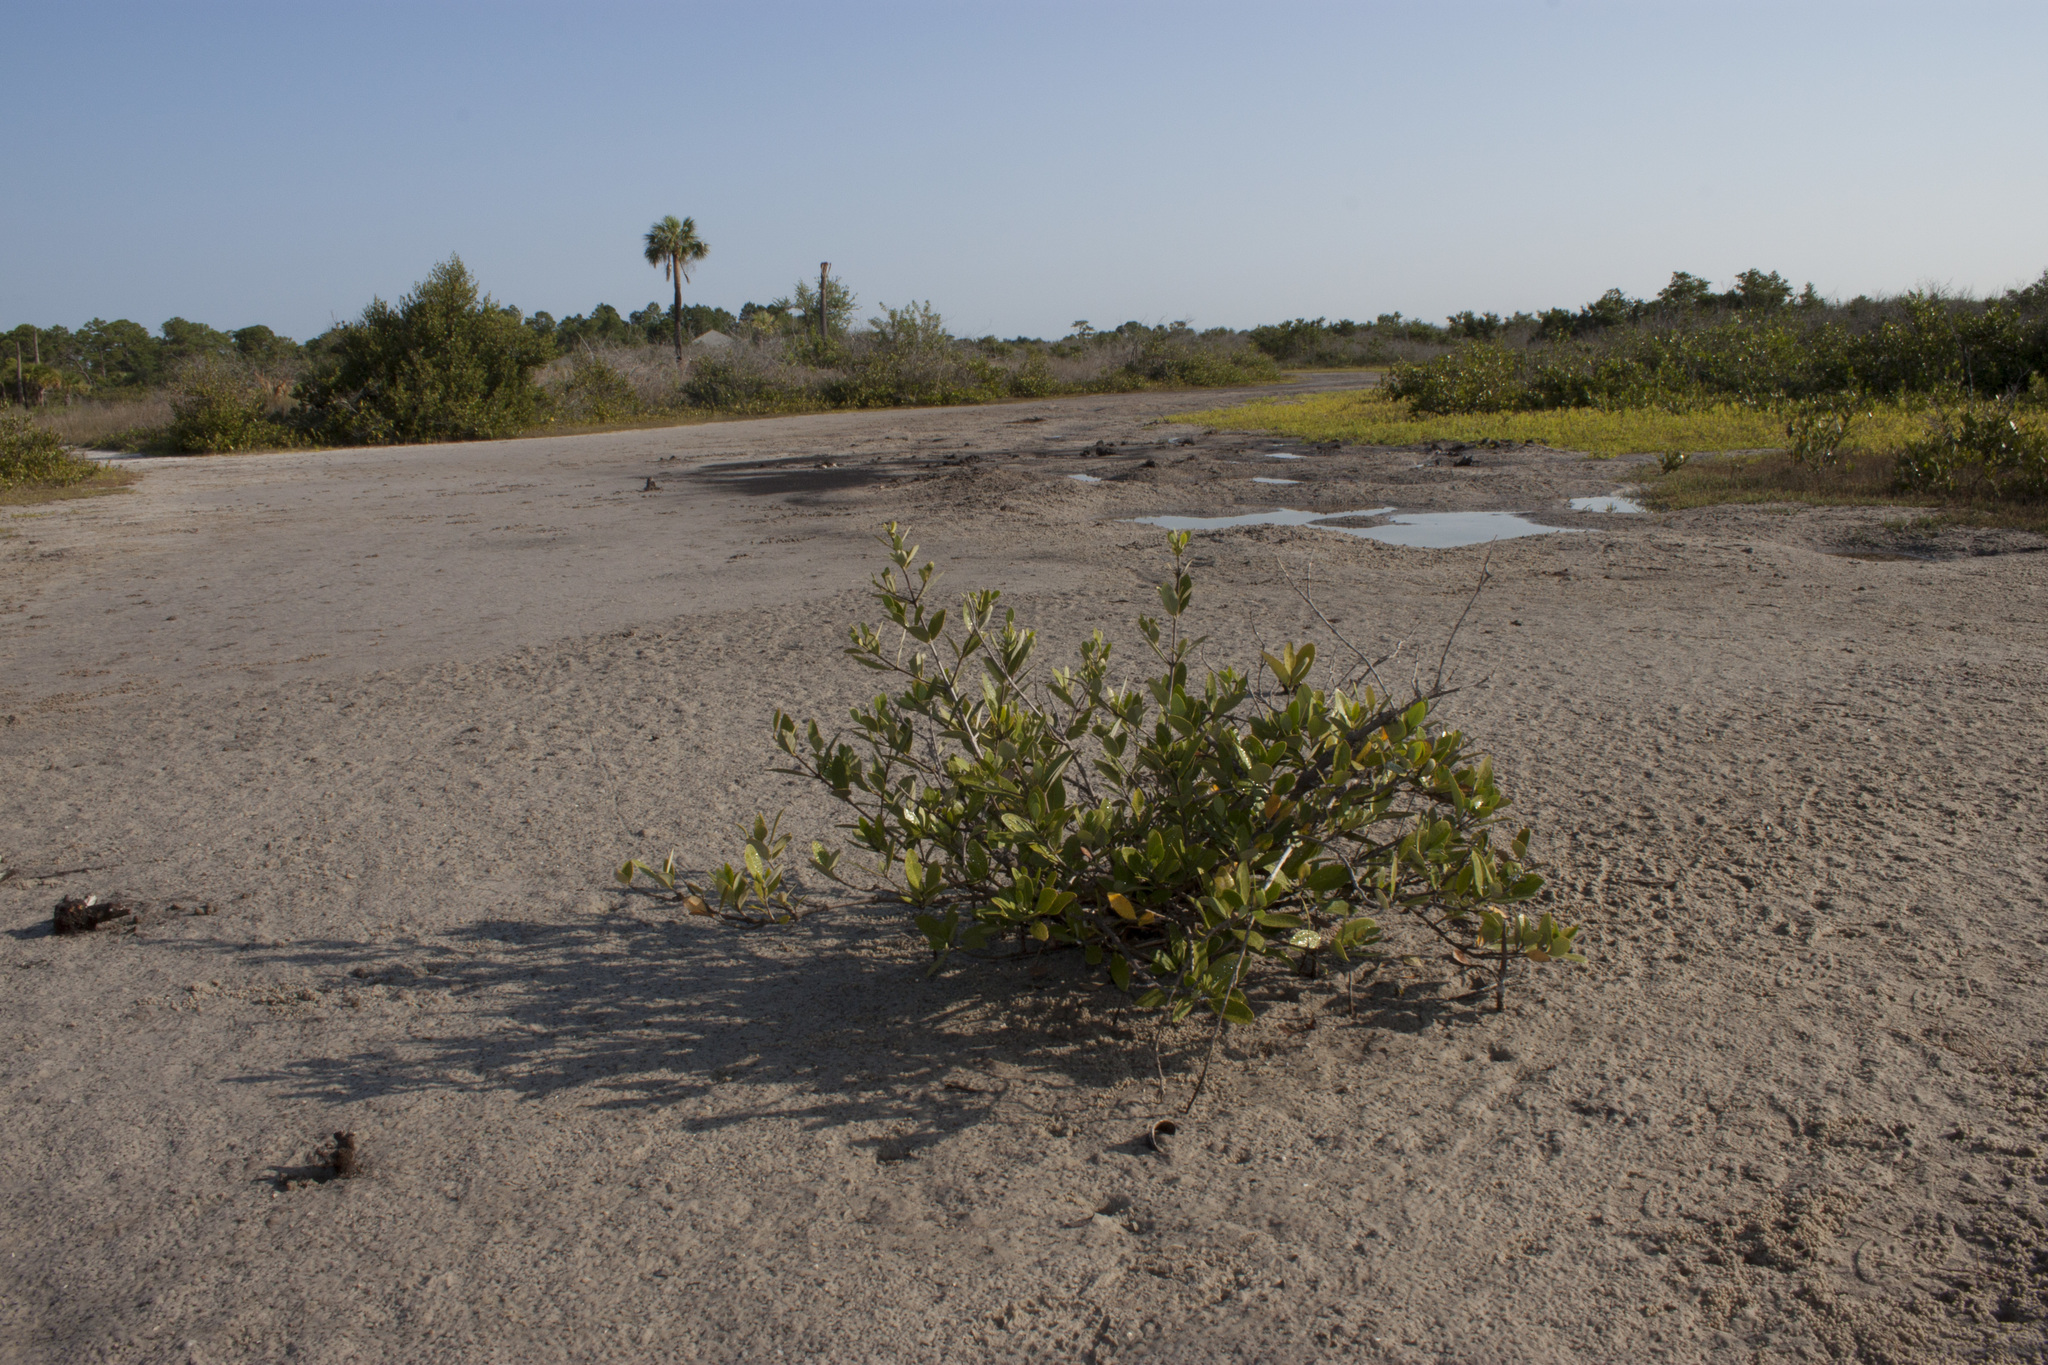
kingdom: Plantae
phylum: Tracheophyta
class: Magnoliopsida
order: Lamiales
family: Acanthaceae
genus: Avicennia
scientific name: Avicennia germinans
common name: Black mangrove
